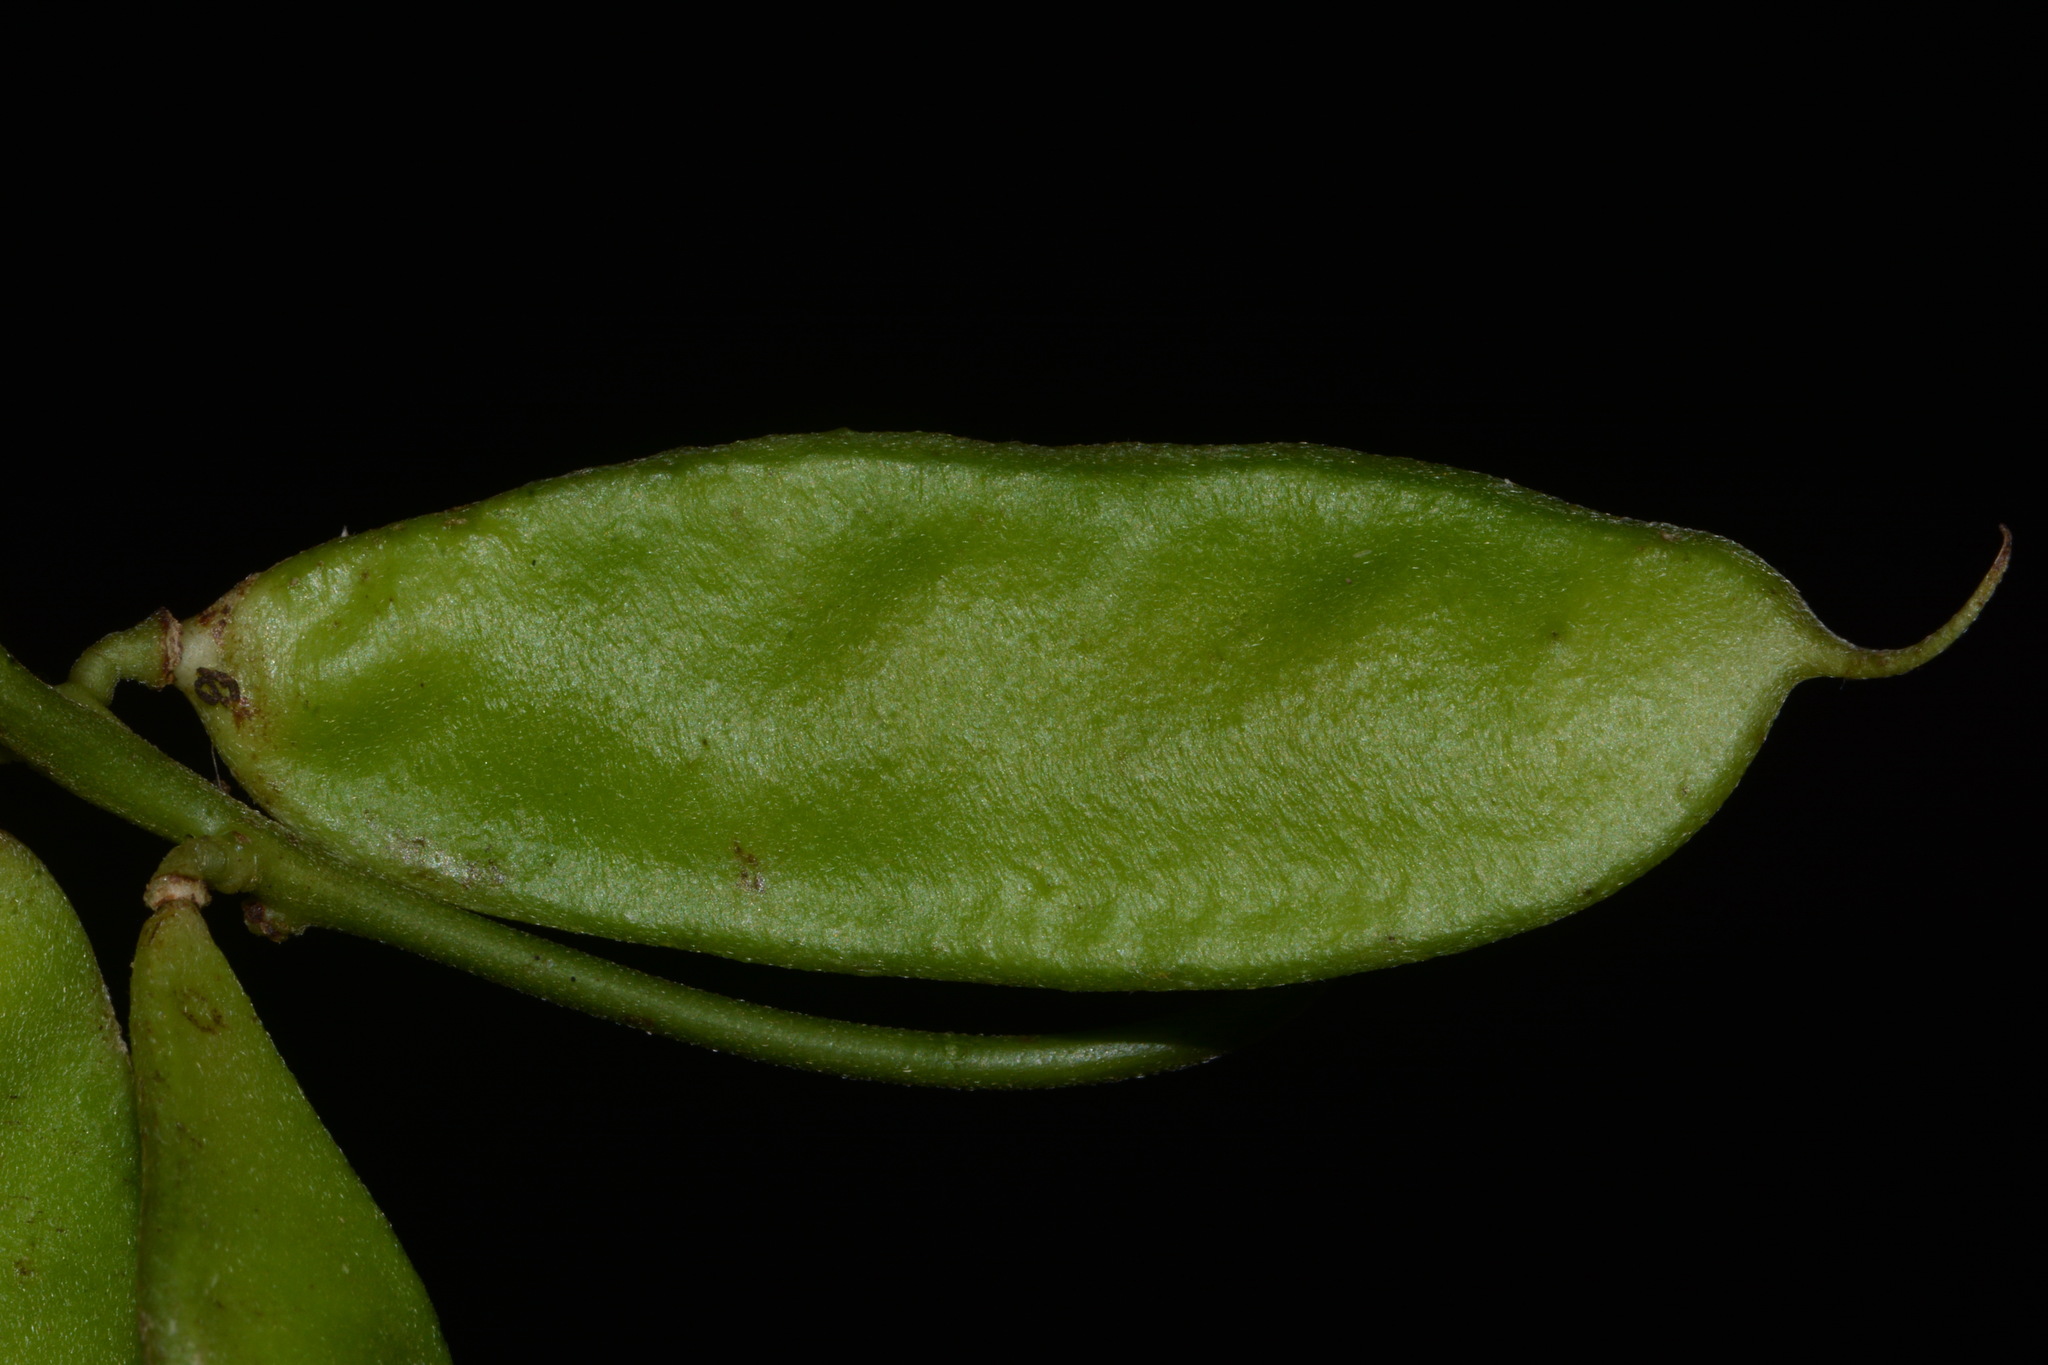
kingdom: Plantae
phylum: Tracheophyta
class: Magnoliopsida
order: Fabales
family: Fabaceae
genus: Lackeya
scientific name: Lackeya multiflora
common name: Boykin's clusterpea
